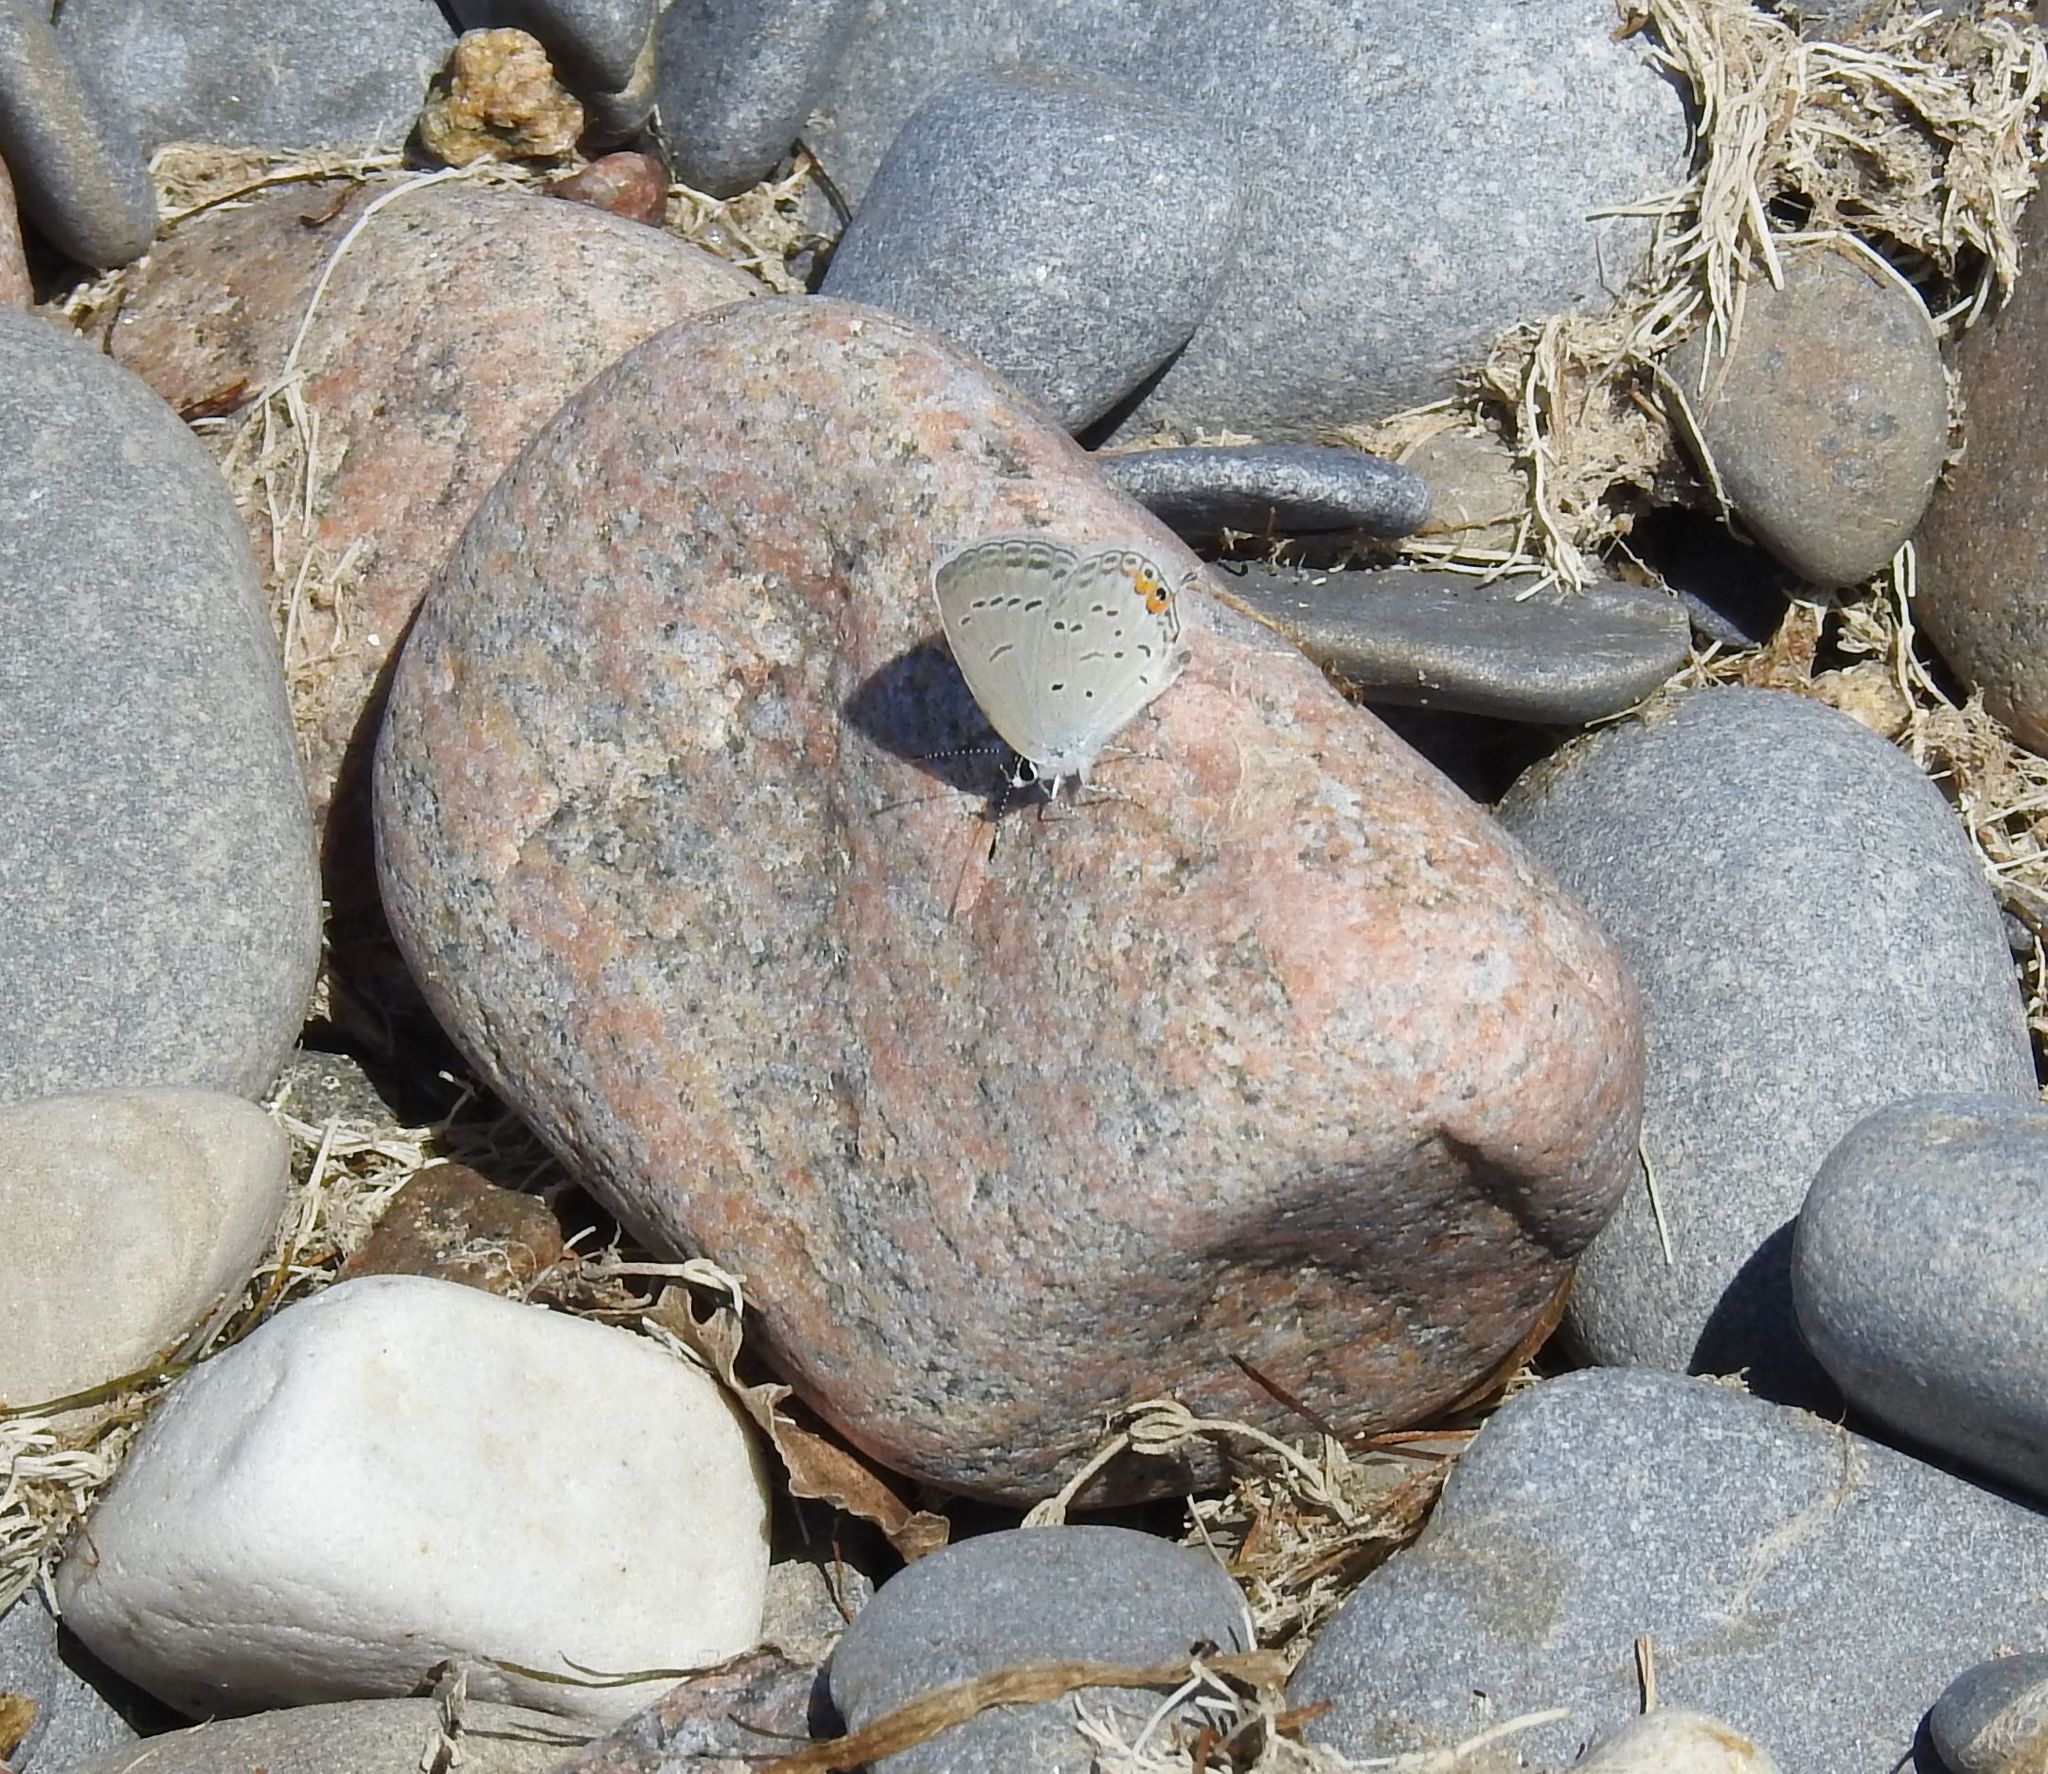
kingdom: Animalia
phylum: Arthropoda
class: Insecta
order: Lepidoptera
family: Lycaenidae
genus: Elkalyce
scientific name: Elkalyce comyntas
